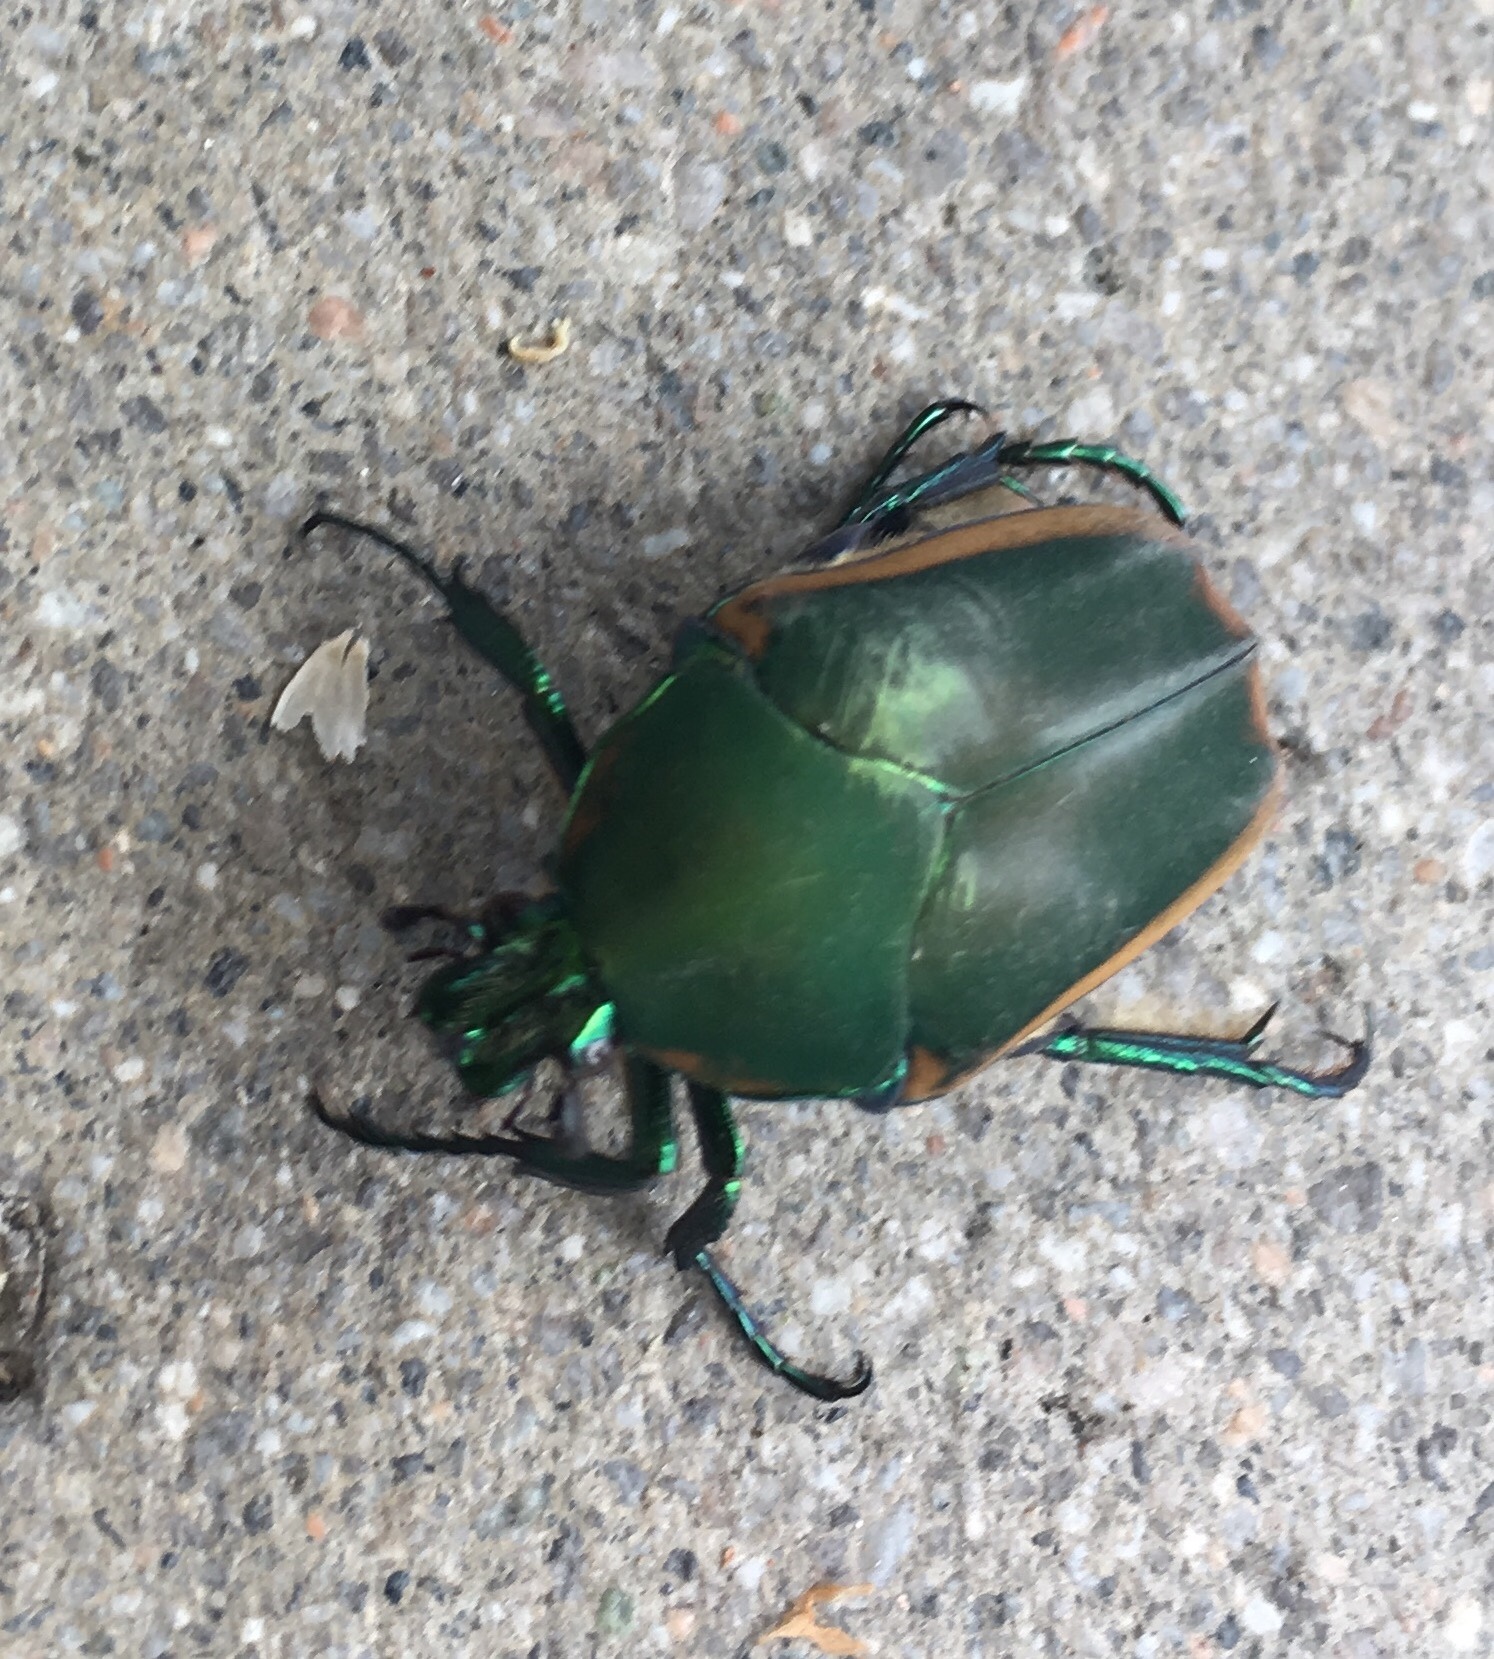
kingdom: Animalia
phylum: Arthropoda
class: Insecta
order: Coleoptera
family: Scarabaeidae
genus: Cotinis
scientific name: Cotinis mutabilis
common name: Figeater beetle
